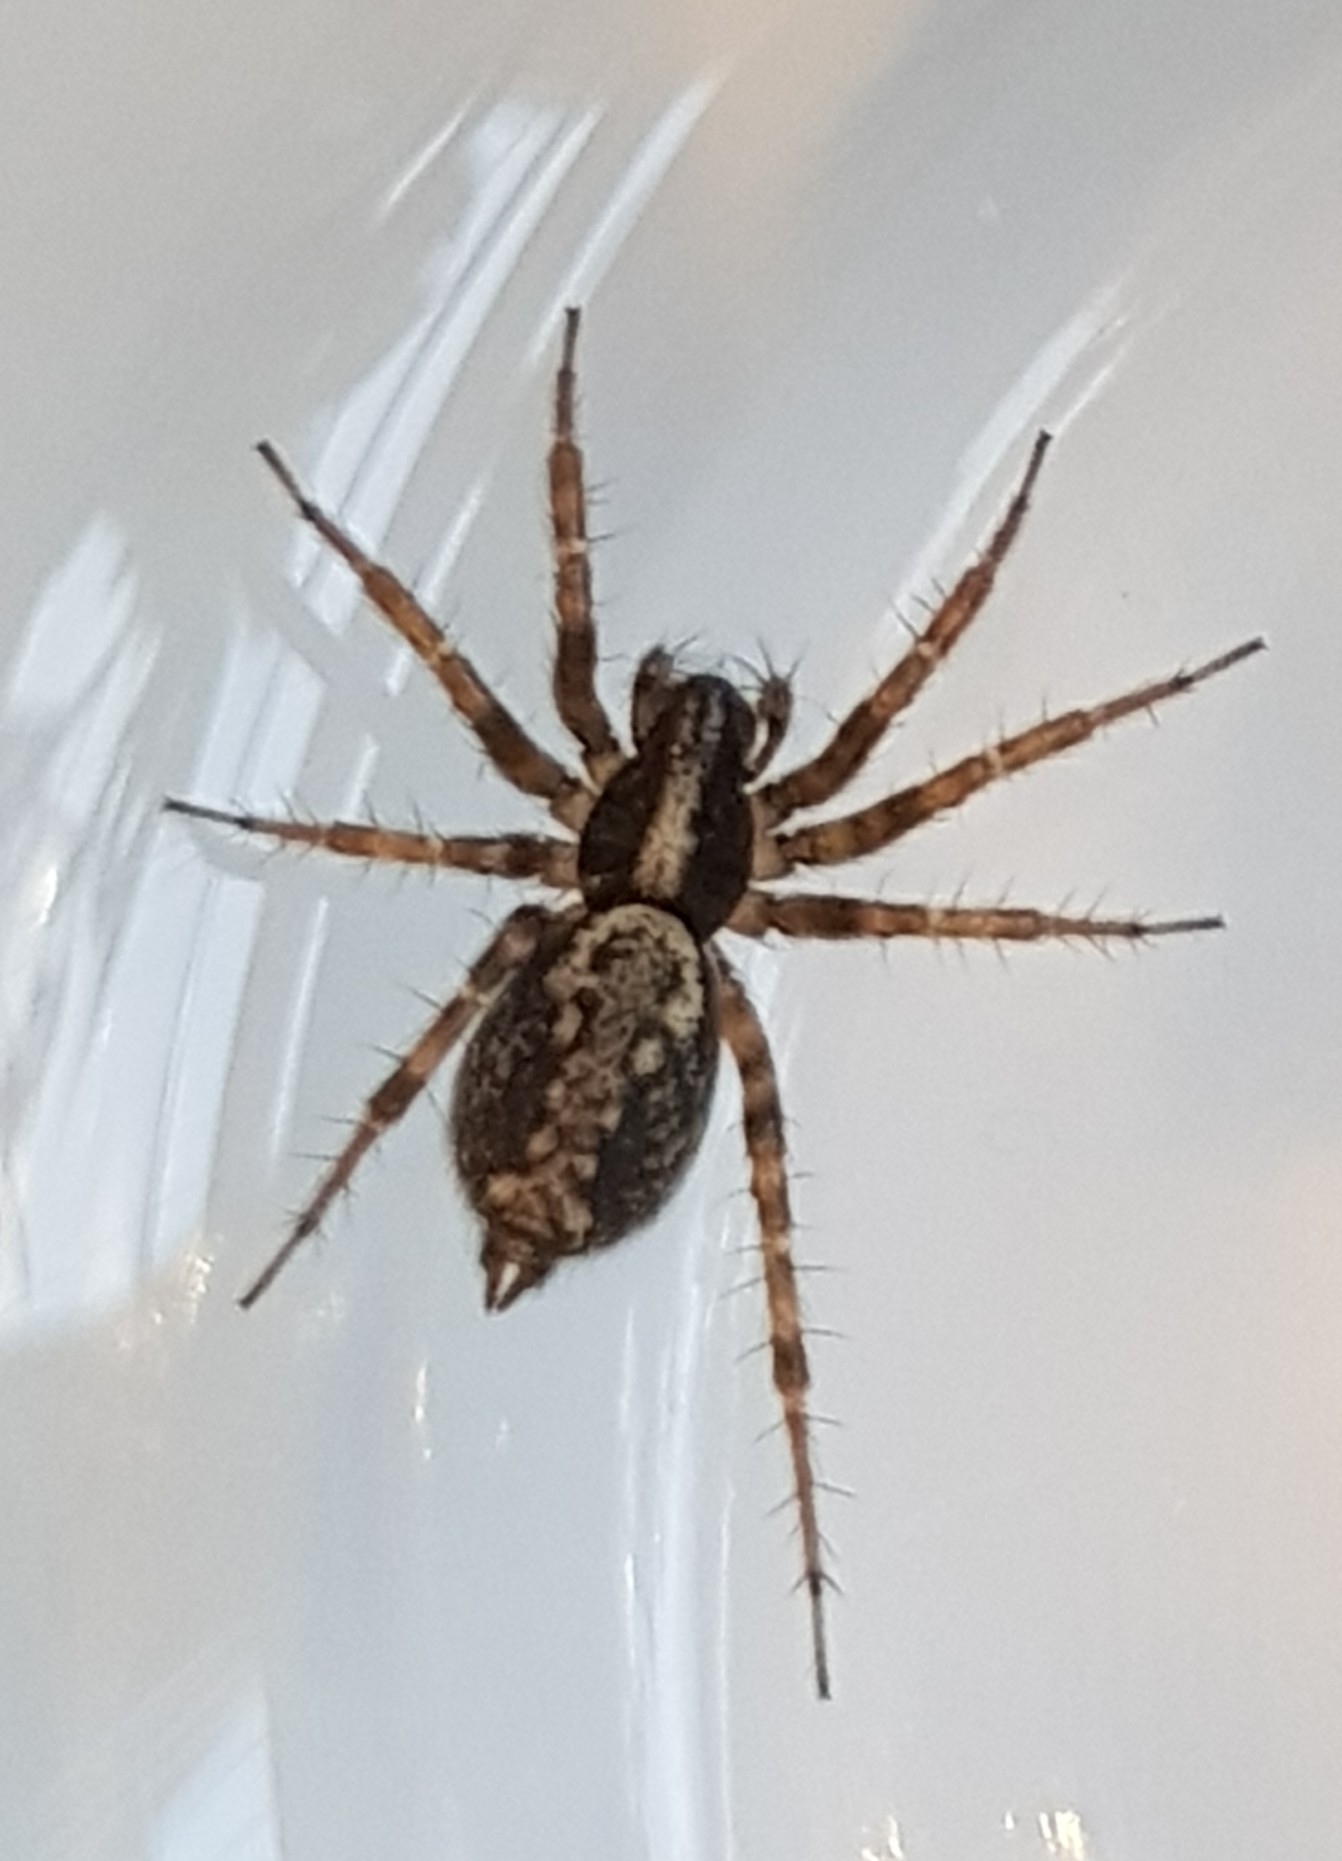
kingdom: Animalia
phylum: Arthropoda
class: Arachnida
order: Araneae
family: Agelenidae
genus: Textrix
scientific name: Textrix denticulata
